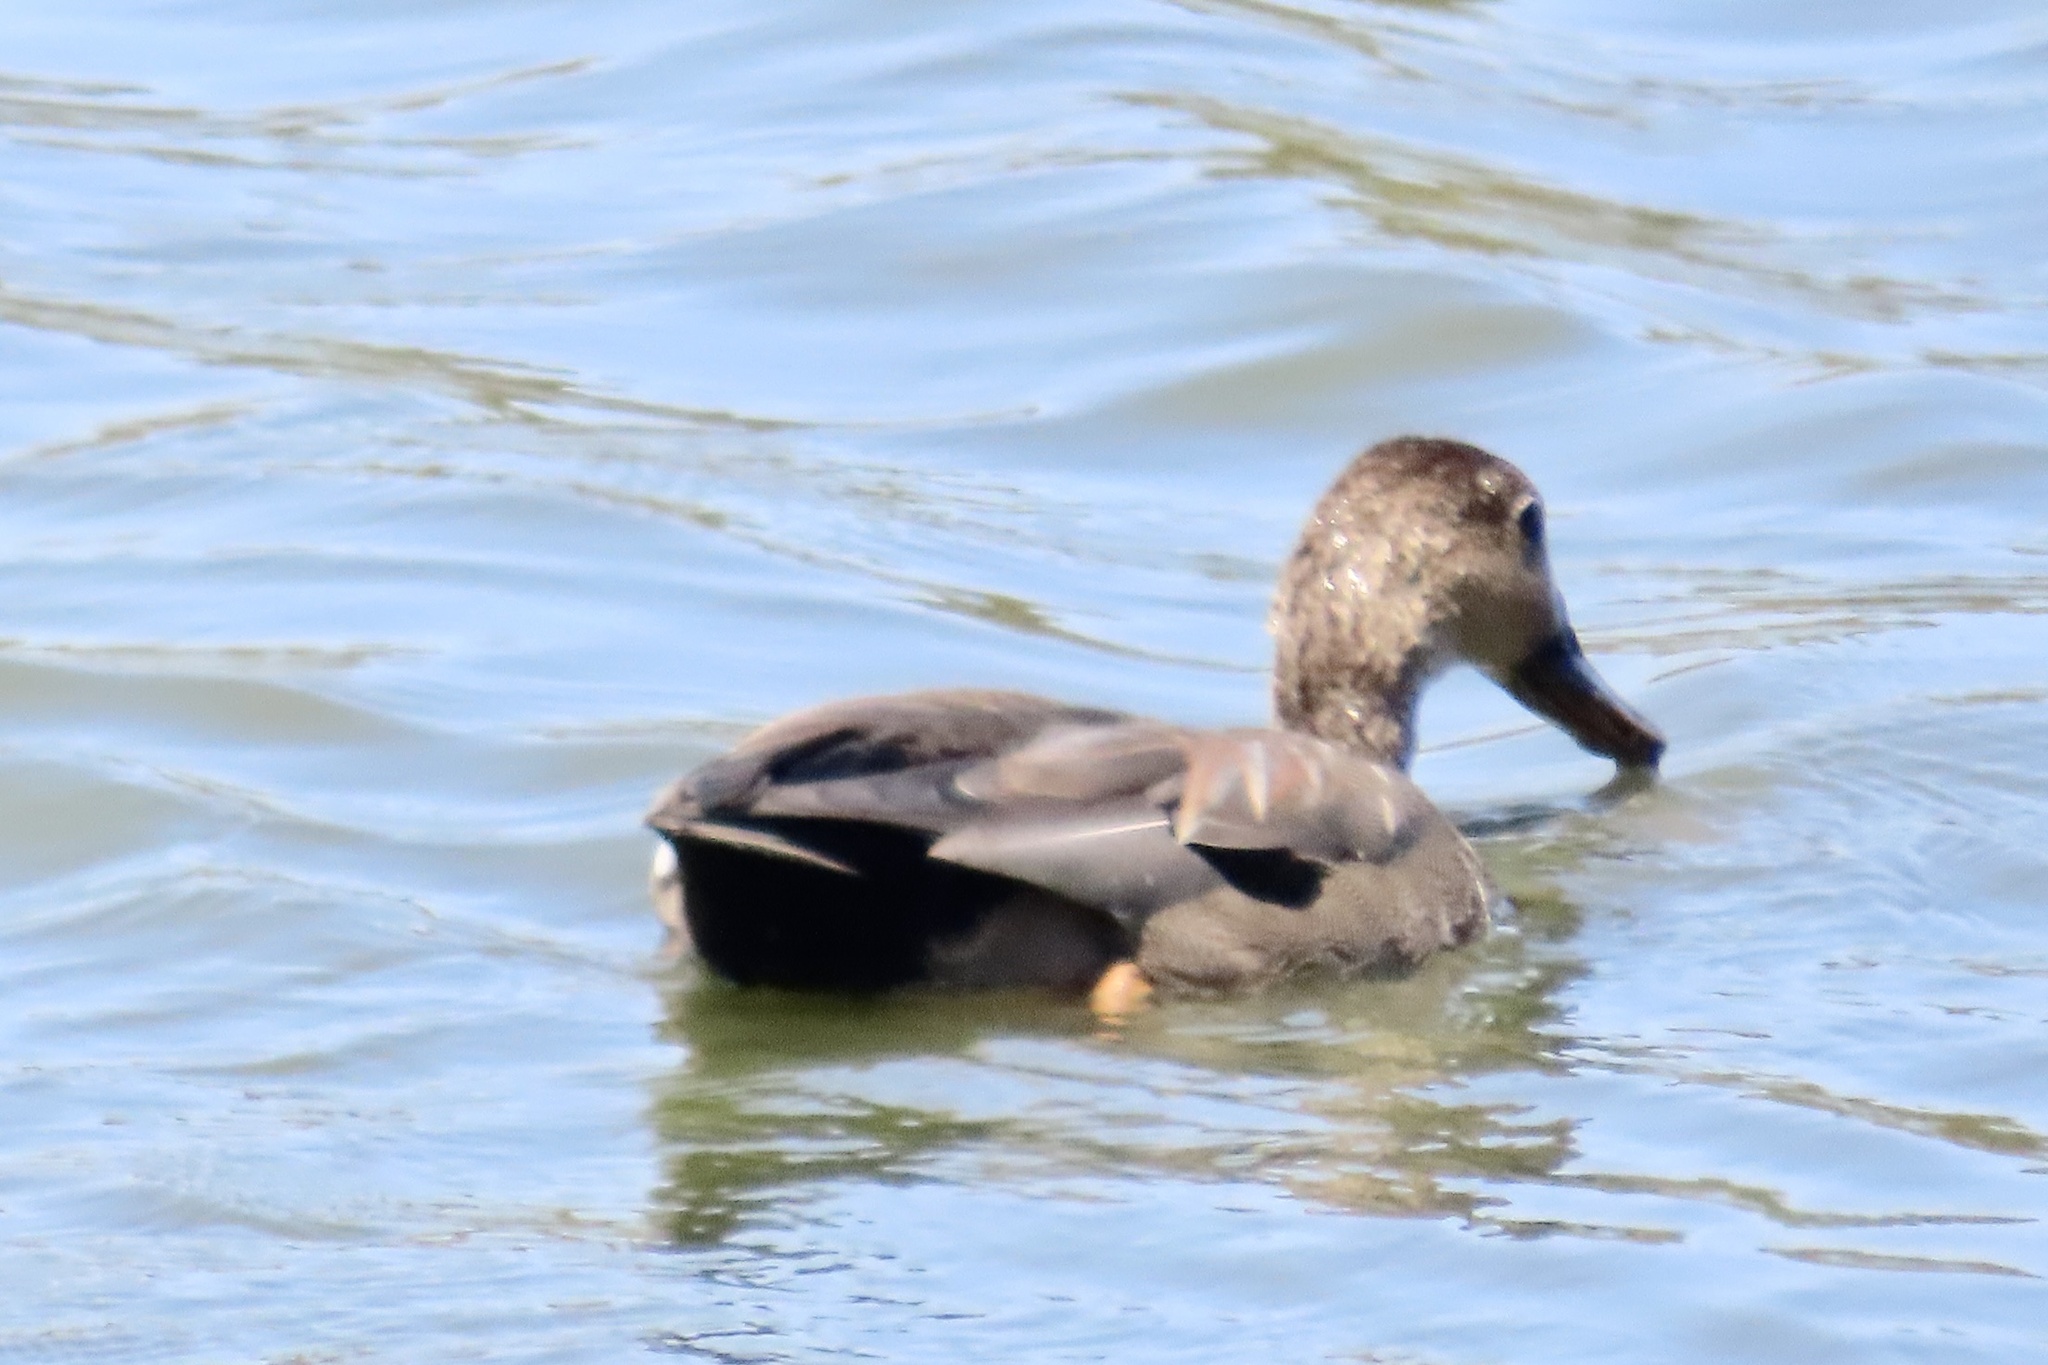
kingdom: Animalia
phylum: Chordata
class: Aves
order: Anseriformes
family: Anatidae
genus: Mareca
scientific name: Mareca strepera
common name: Gadwall
